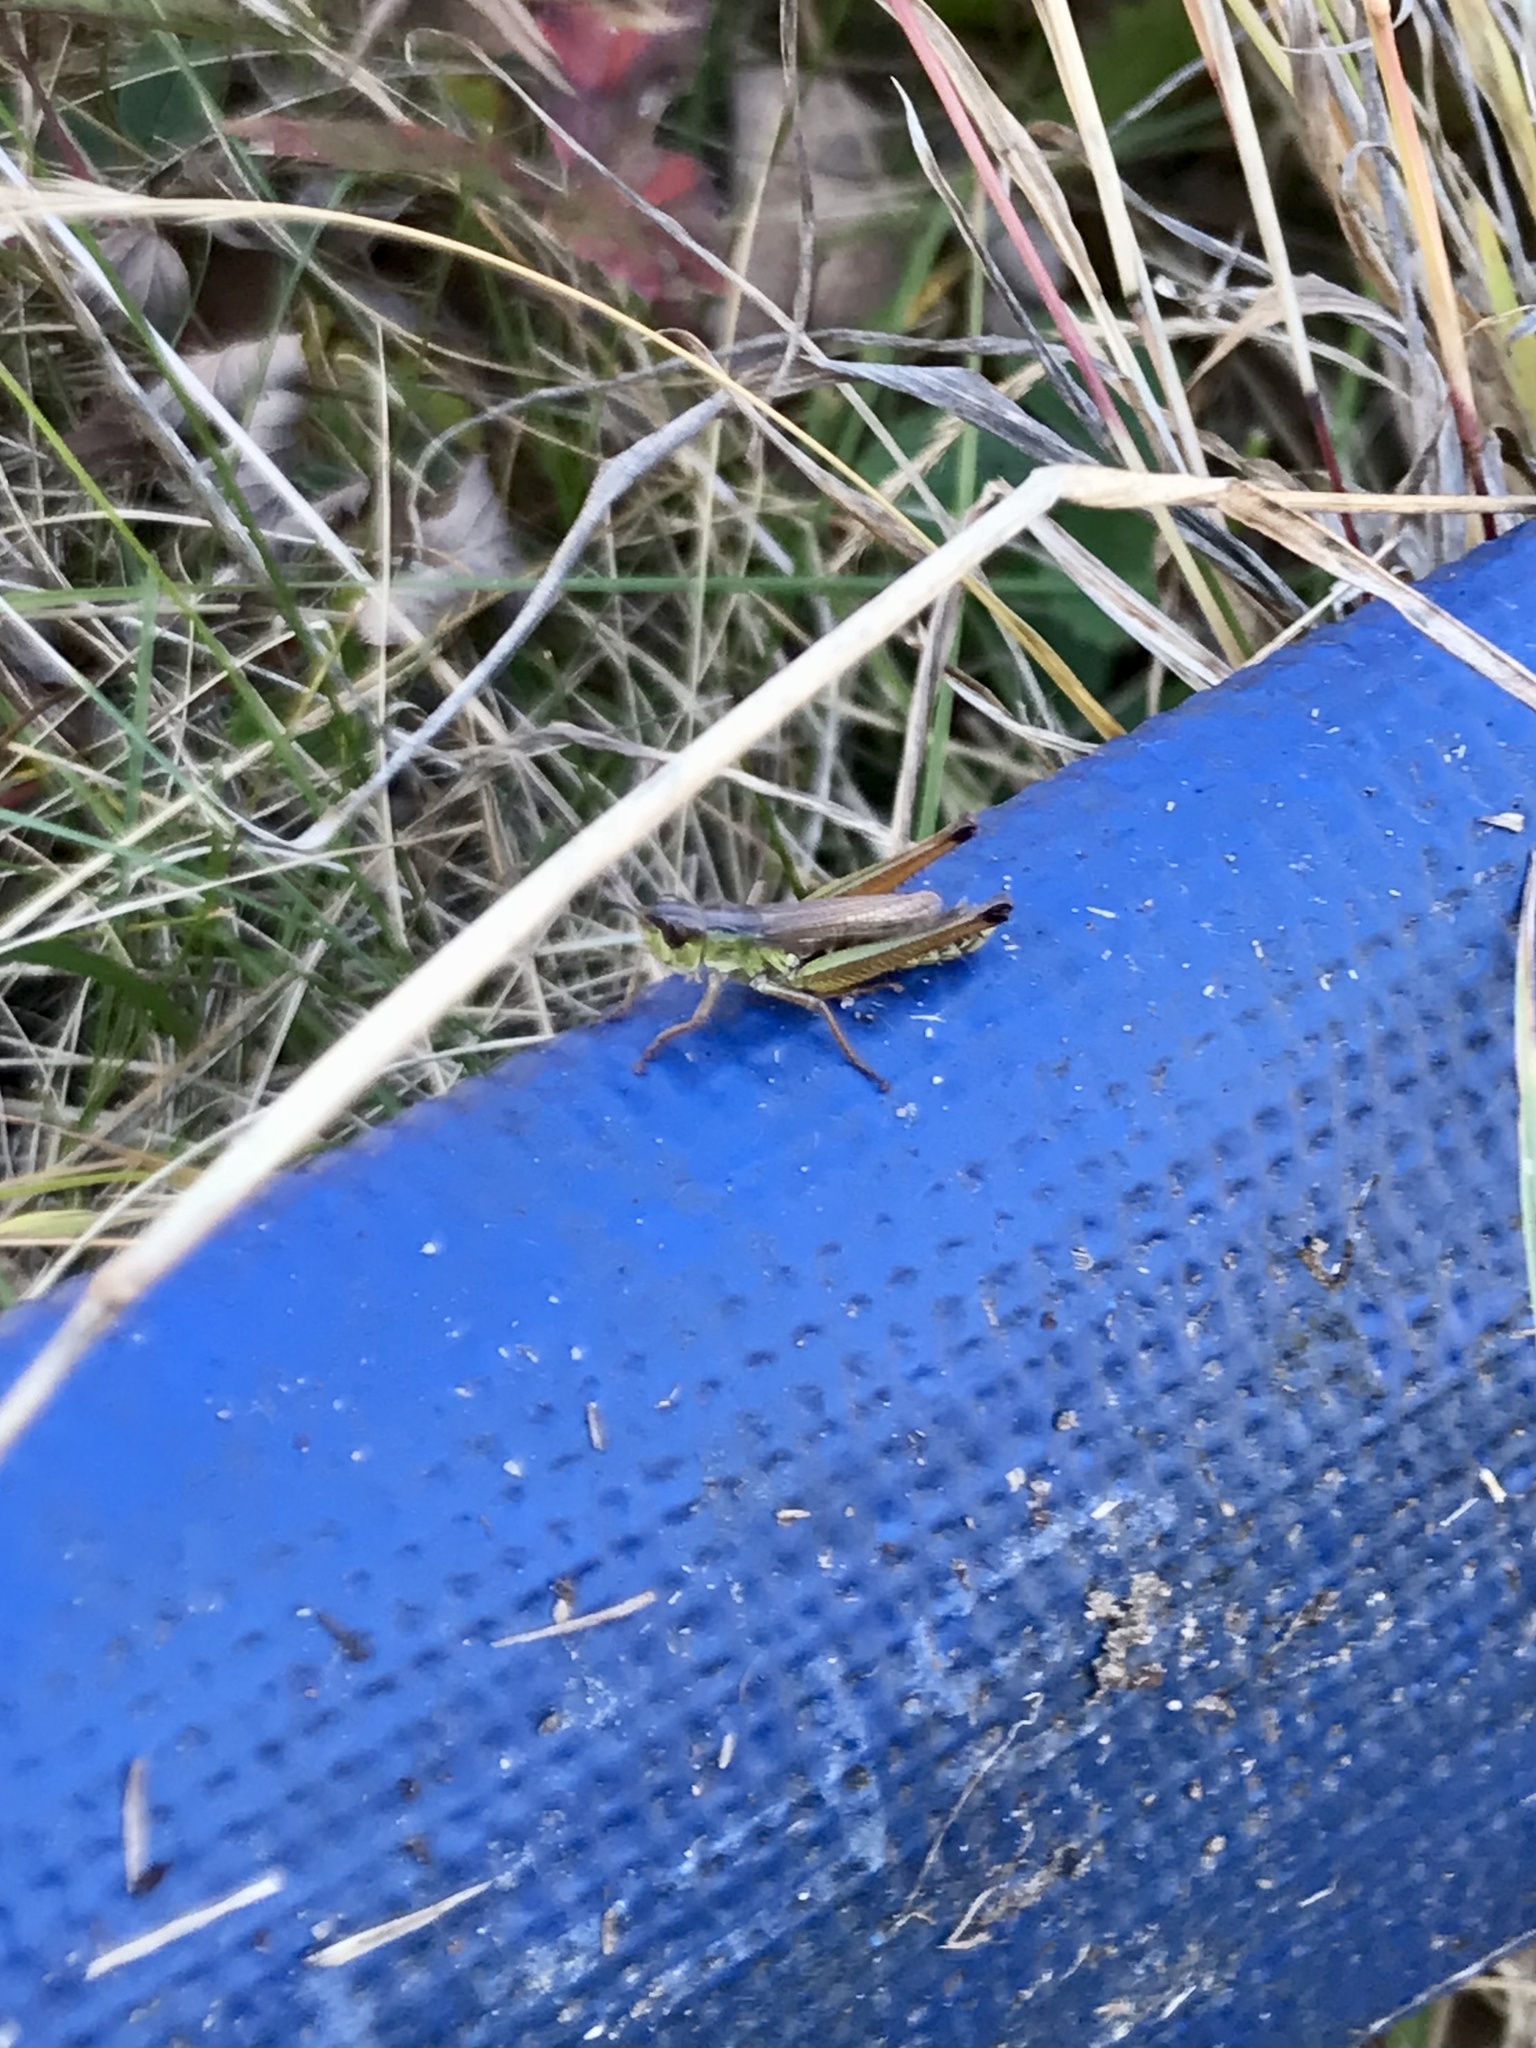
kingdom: Animalia
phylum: Arthropoda
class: Insecta
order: Orthoptera
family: Acrididae
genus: Pseudochorthippus
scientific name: Pseudochorthippus curtipennis
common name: Marsh meadow grasshopper
